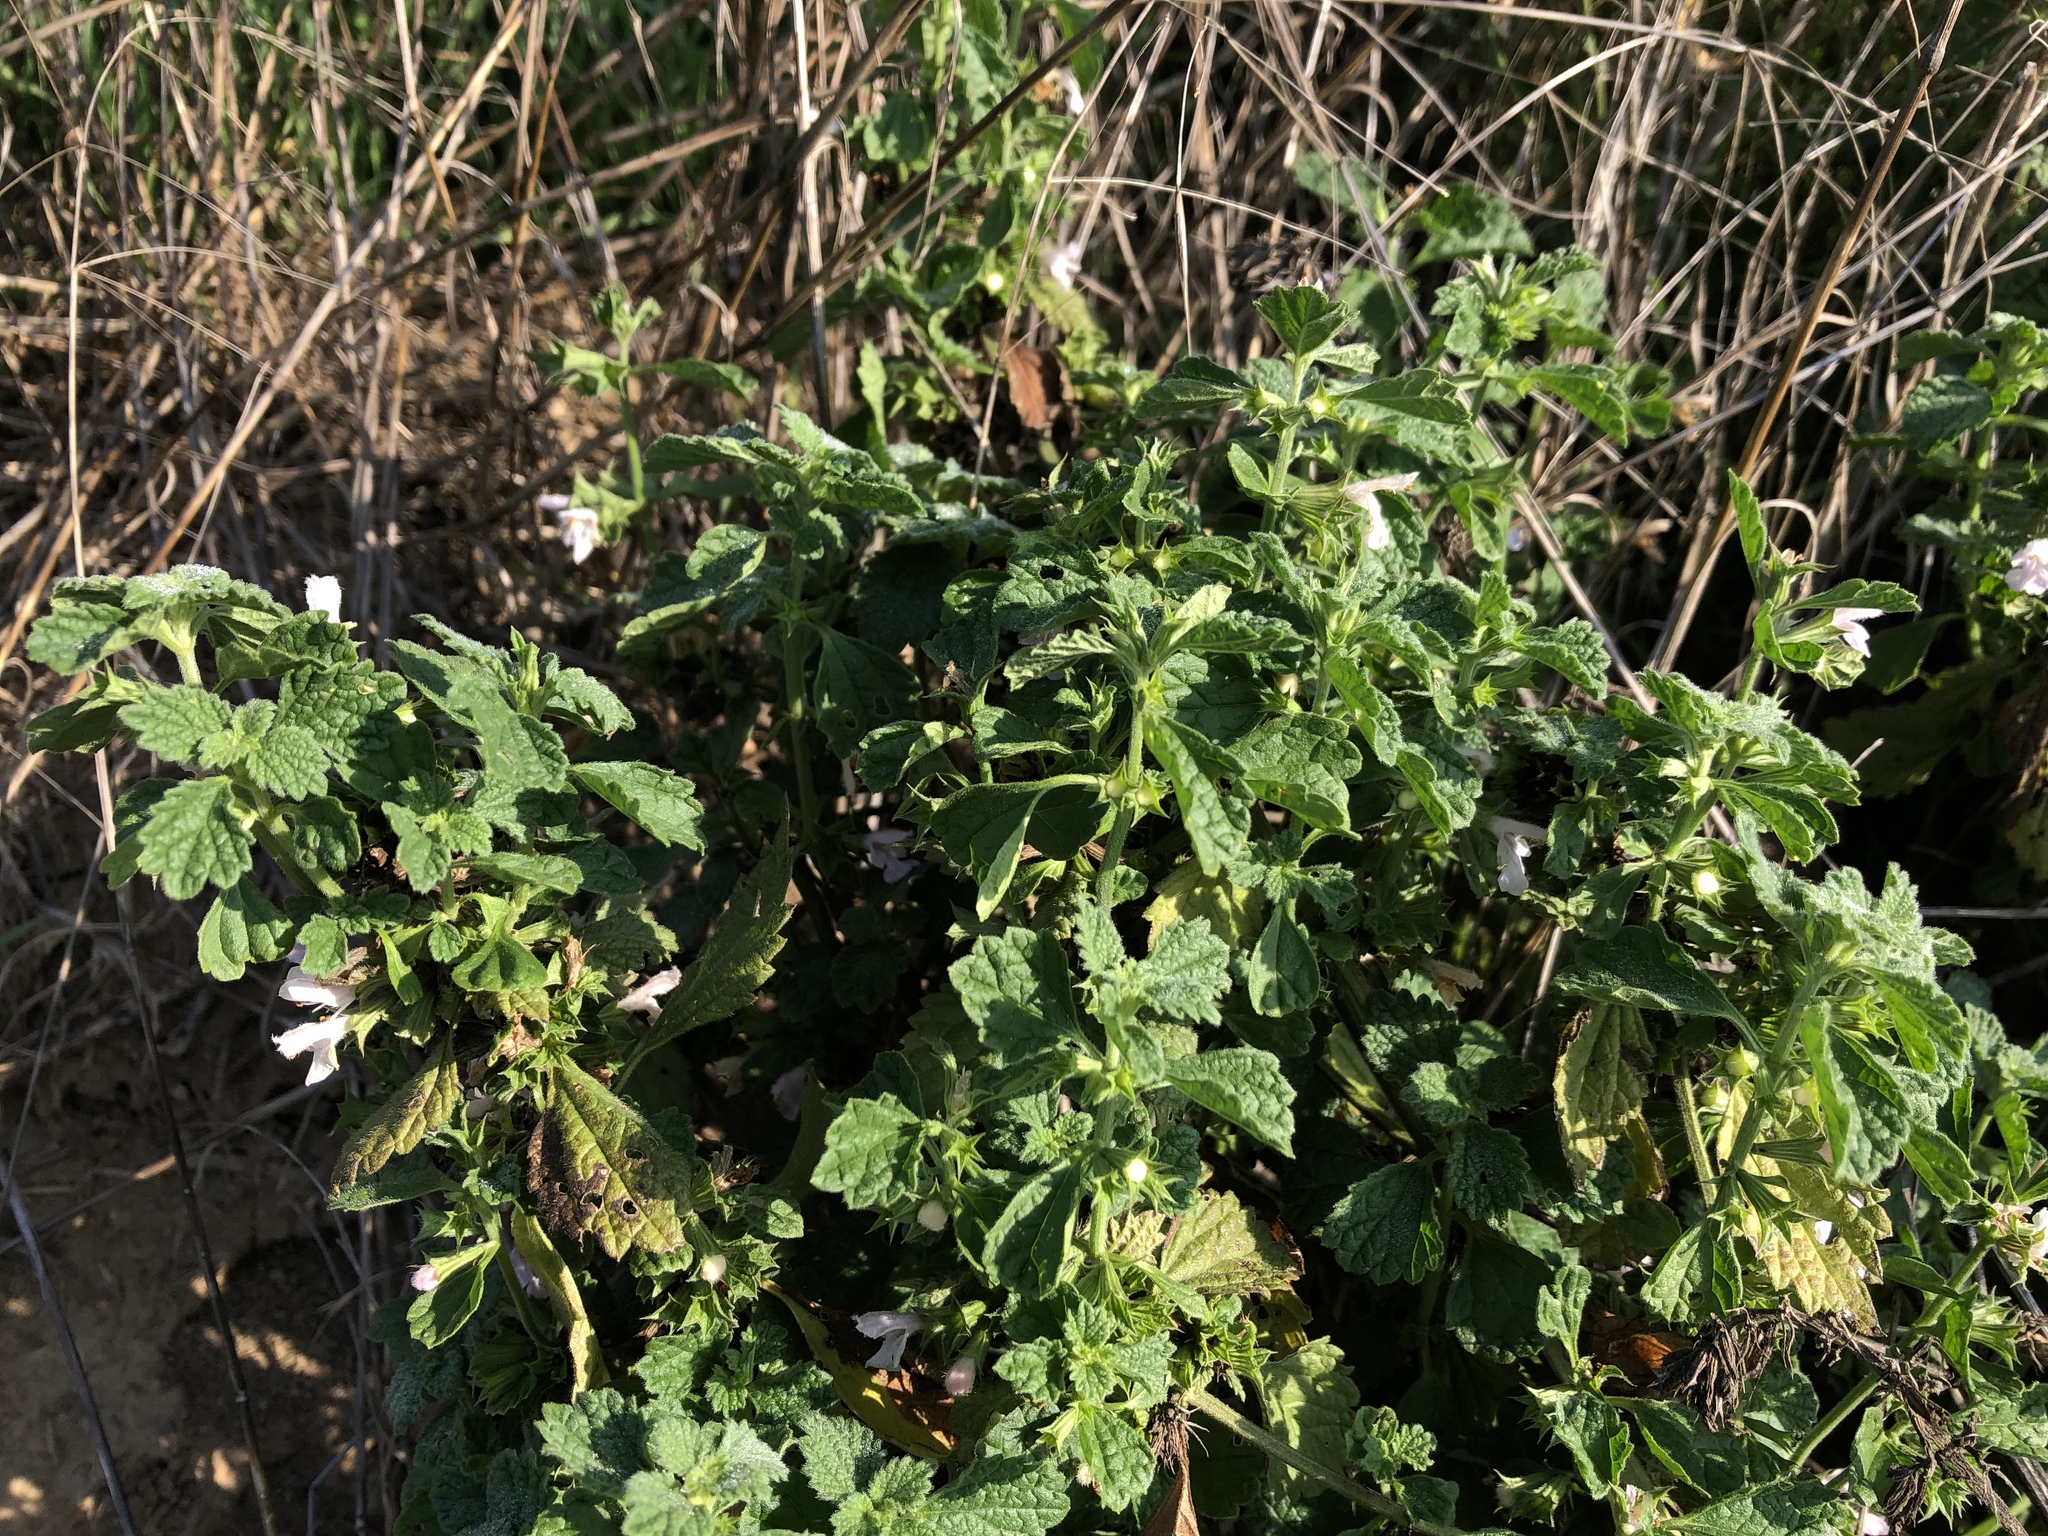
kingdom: Plantae
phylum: Tracheophyta
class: Magnoliopsida
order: Lamiales
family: Lamiaceae
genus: Ballota
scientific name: Ballota nigra
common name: Black horehound
